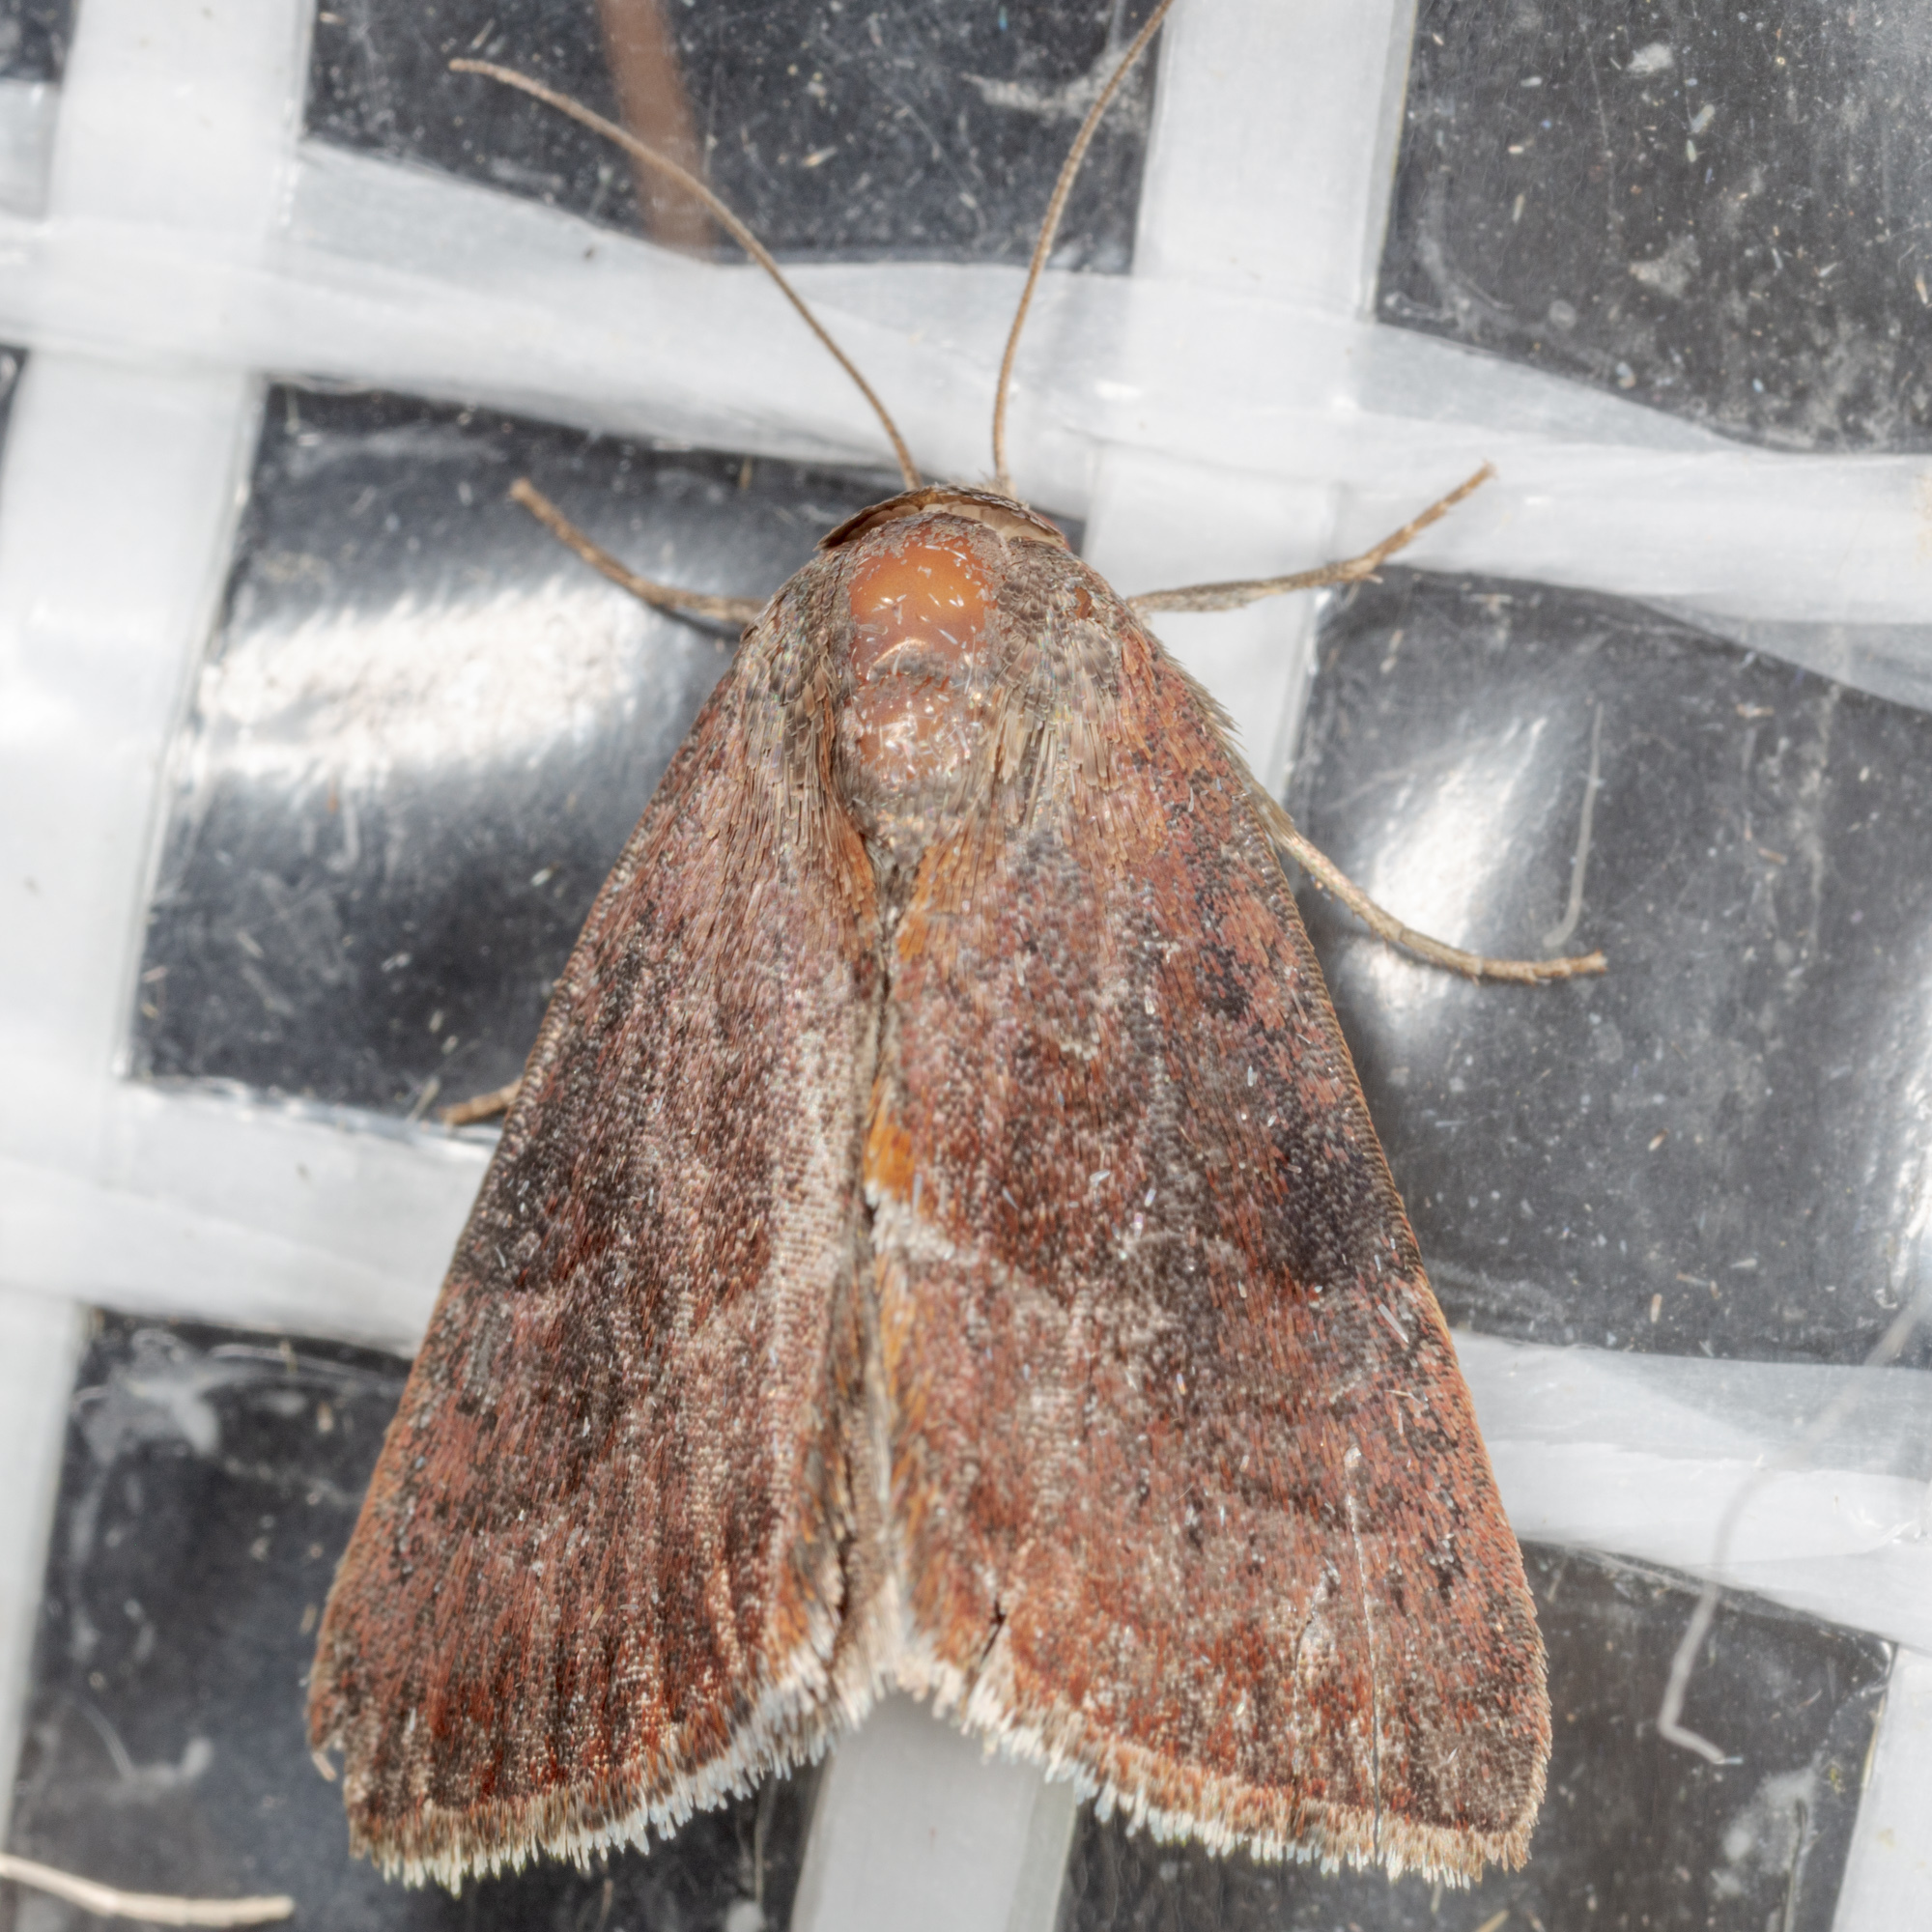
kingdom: Animalia
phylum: Arthropoda
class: Insecta
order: Lepidoptera
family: Noctuidae
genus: Galgula
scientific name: Galgula partita
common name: Wedgeling
